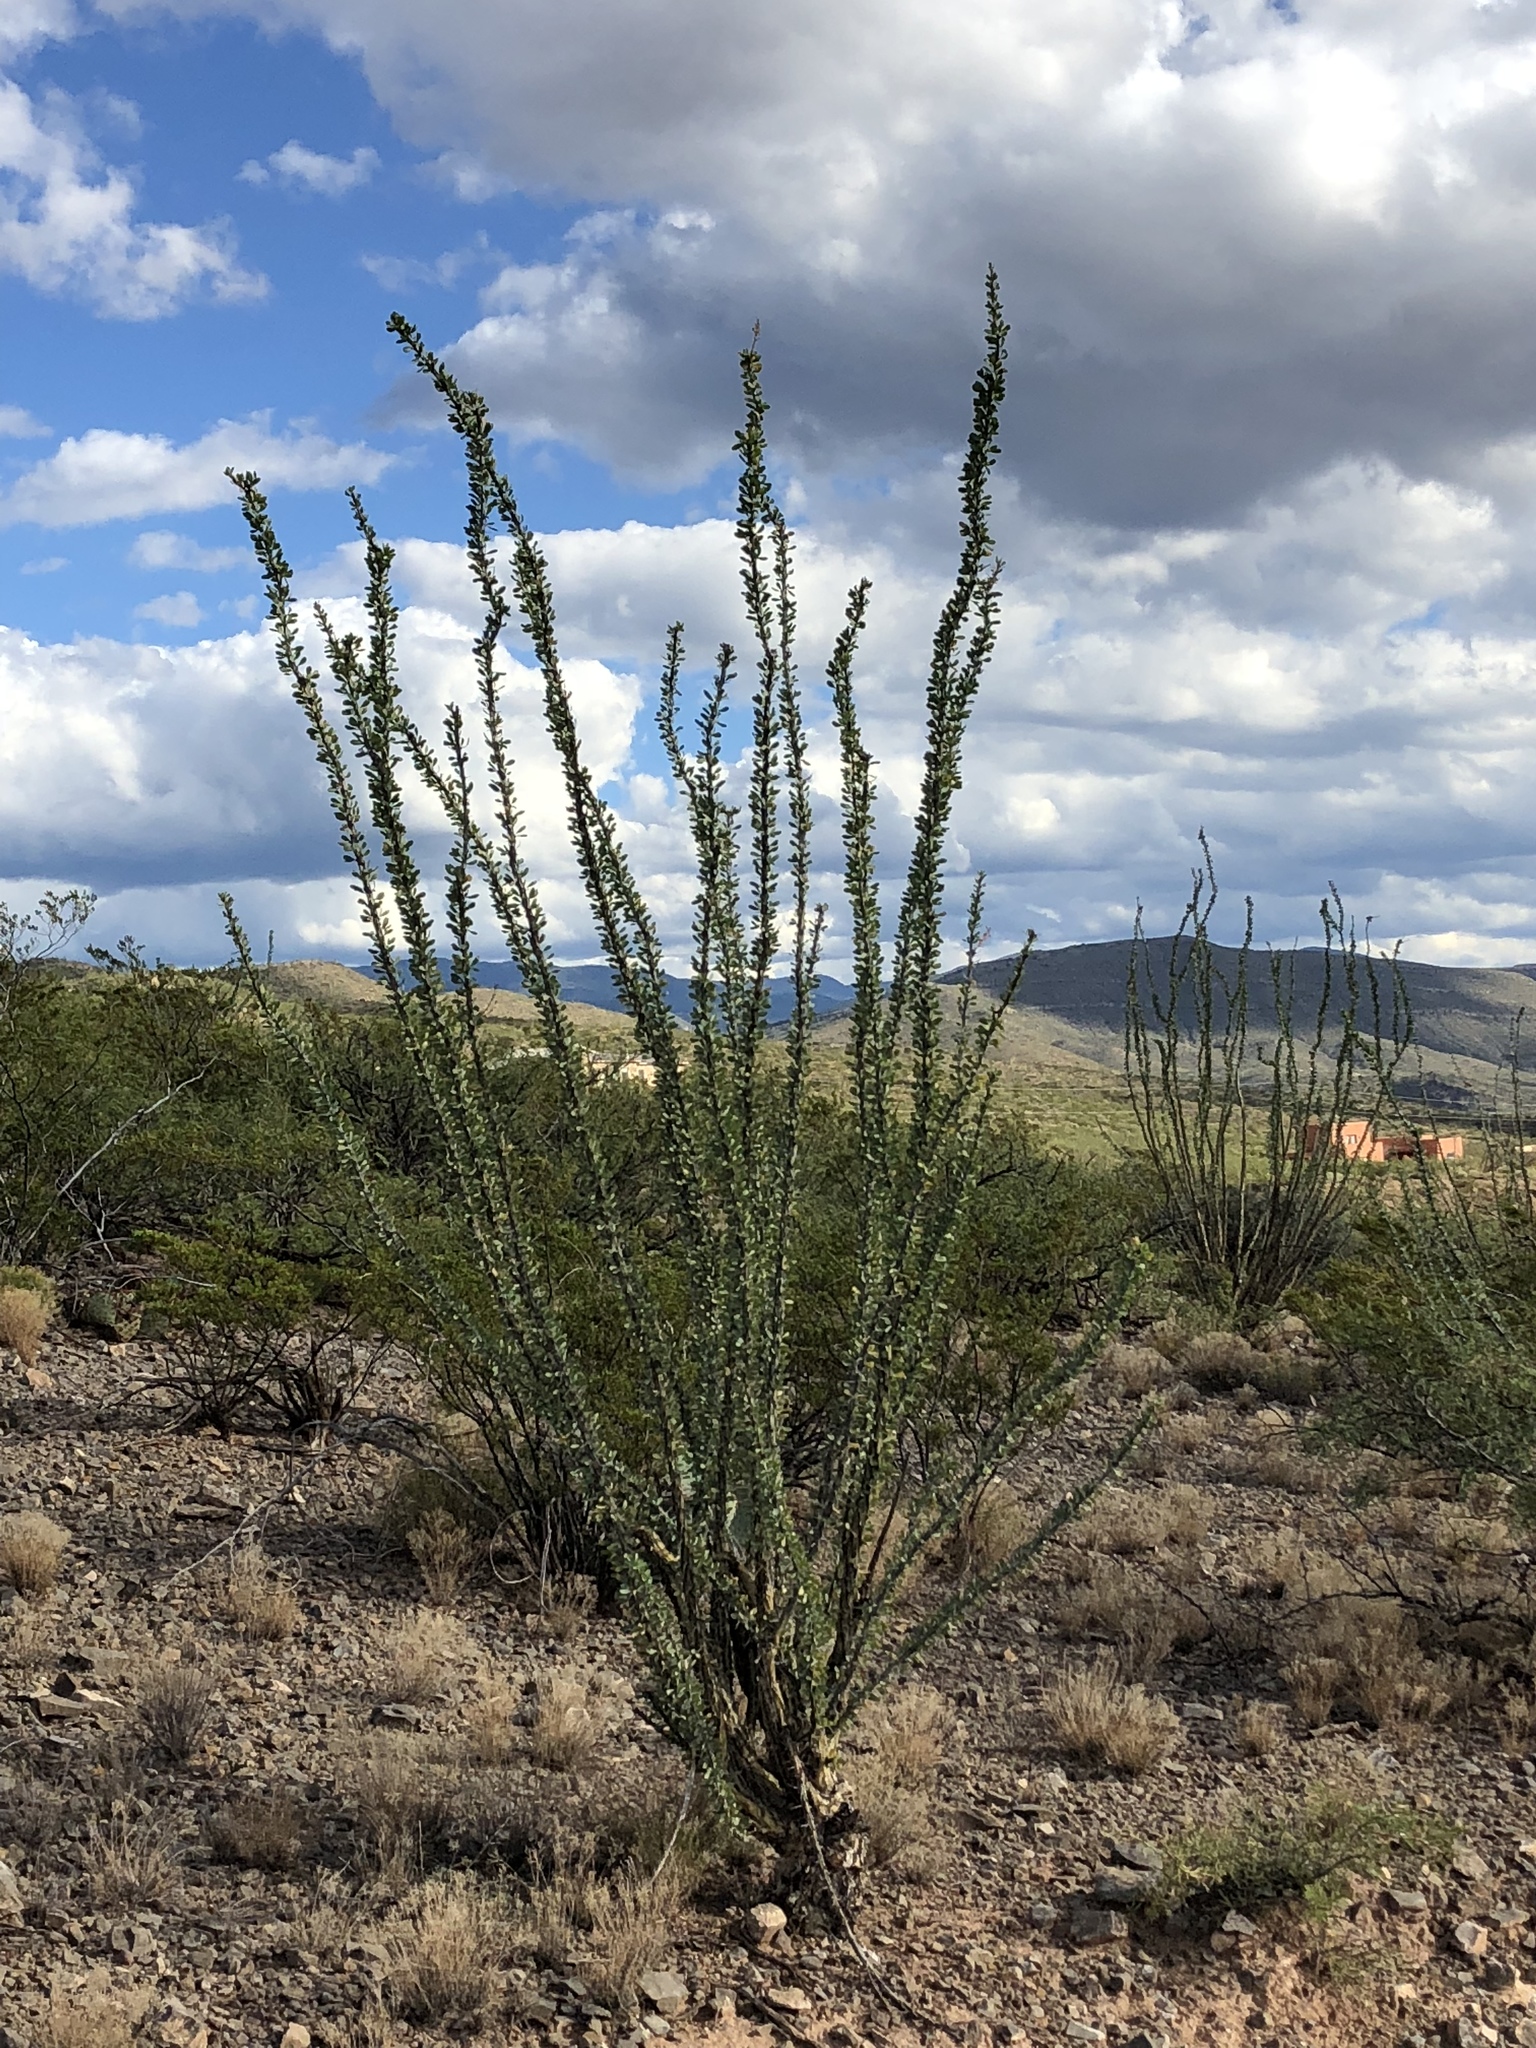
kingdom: Plantae
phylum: Tracheophyta
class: Magnoliopsida
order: Ericales
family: Fouquieriaceae
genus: Fouquieria
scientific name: Fouquieria splendens
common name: Vine-cactus
